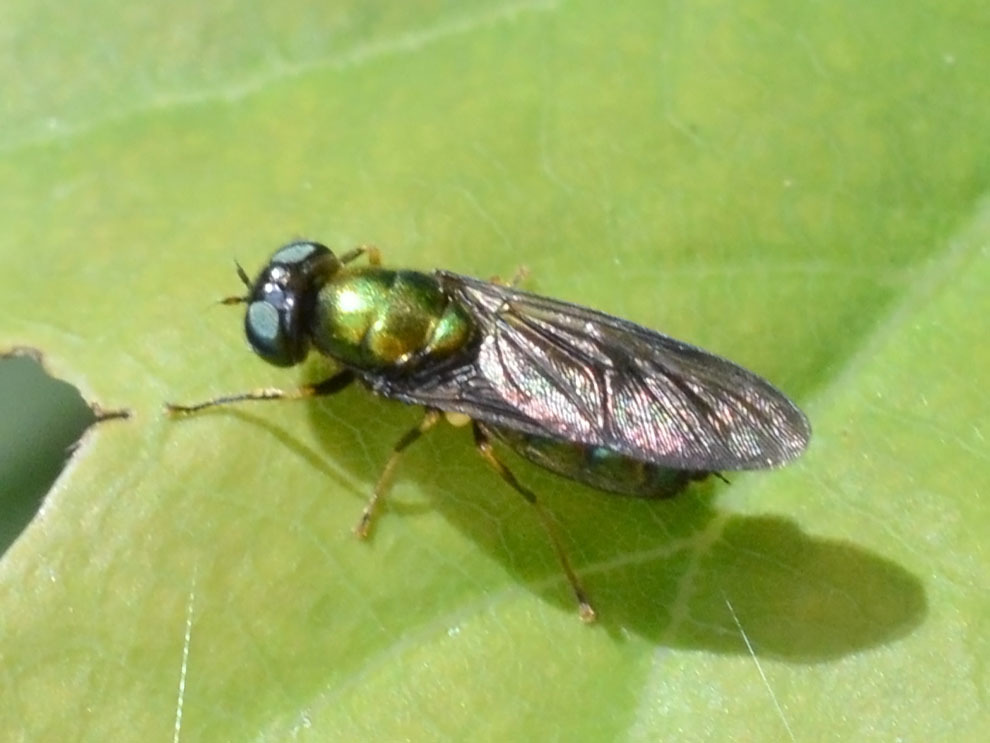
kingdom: Animalia
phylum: Arthropoda
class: Insecta
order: Diptera
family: Stratiomyidae
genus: Chloromyia
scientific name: Chloromyia speciosa
